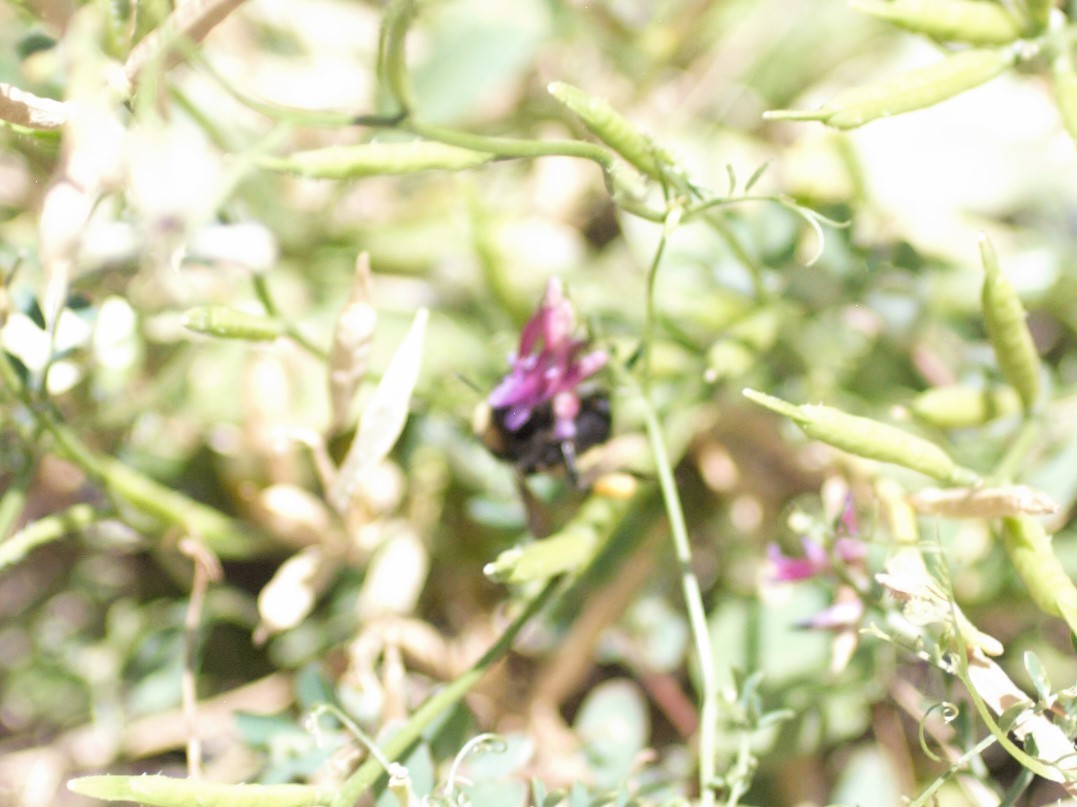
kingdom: Animalia
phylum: Arthropoda
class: Insecta
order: Hymenoptera
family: Apidae
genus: Bombus
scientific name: Bombus pensylvanicus
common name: Bumble bee
